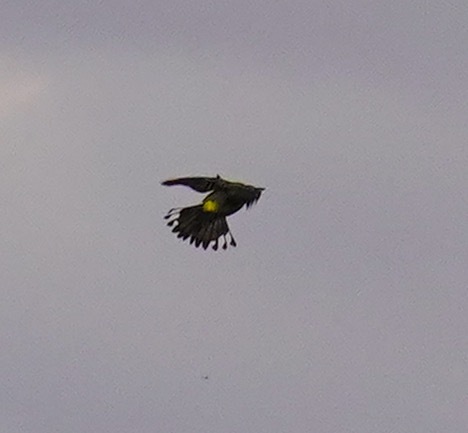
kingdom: Animalia
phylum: Chordata
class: Aves
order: Passeriformes
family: Parulidae
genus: Setophaga
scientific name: Setophaga coronata
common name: Myrtle warbler
